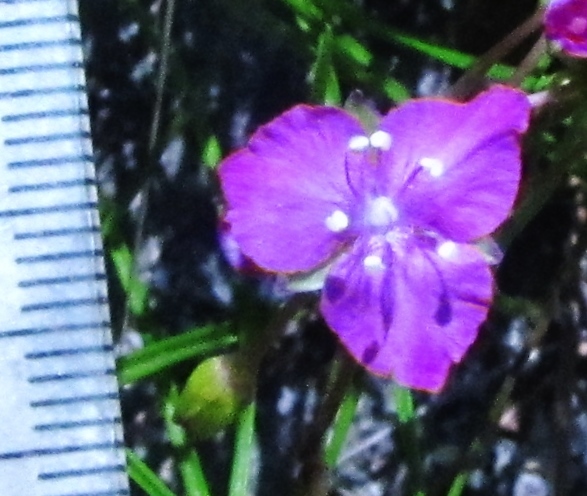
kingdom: Plantae
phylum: Tracheophyta
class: Liliopsida
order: Commelinales
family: Commelinaceae
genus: Callisia
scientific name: Callisia graminea
